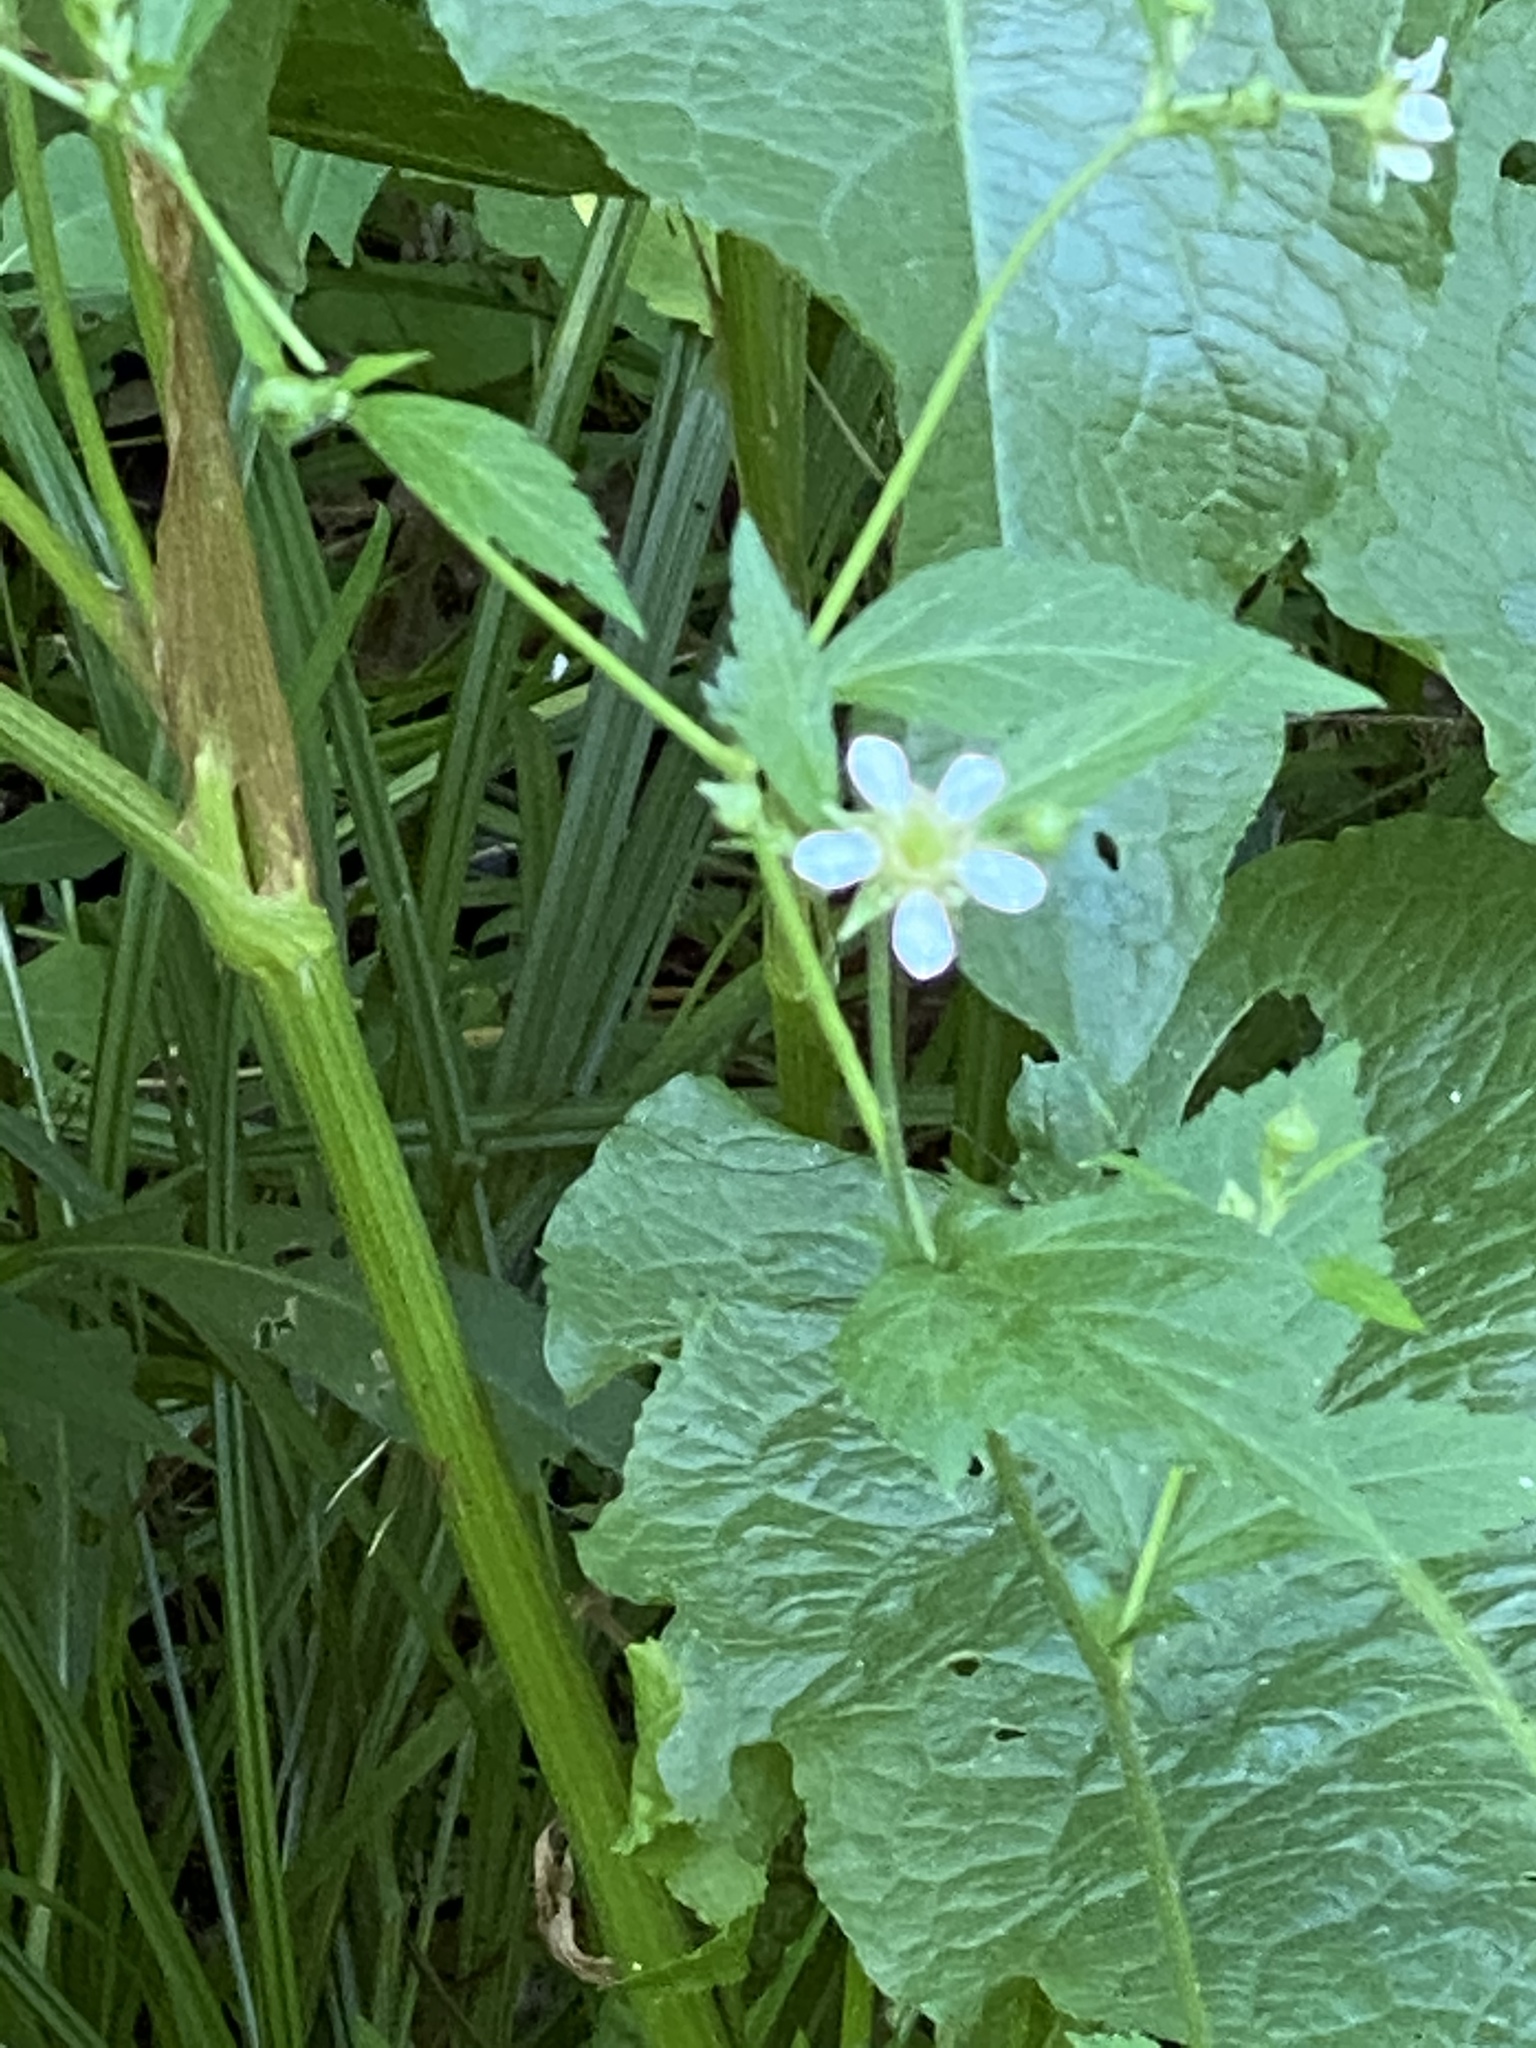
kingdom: Plantae
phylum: Tracheophyta
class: Magnoliopsida
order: Rosales
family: Rosaceae
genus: Geum
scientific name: Geum canadense
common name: White avens
